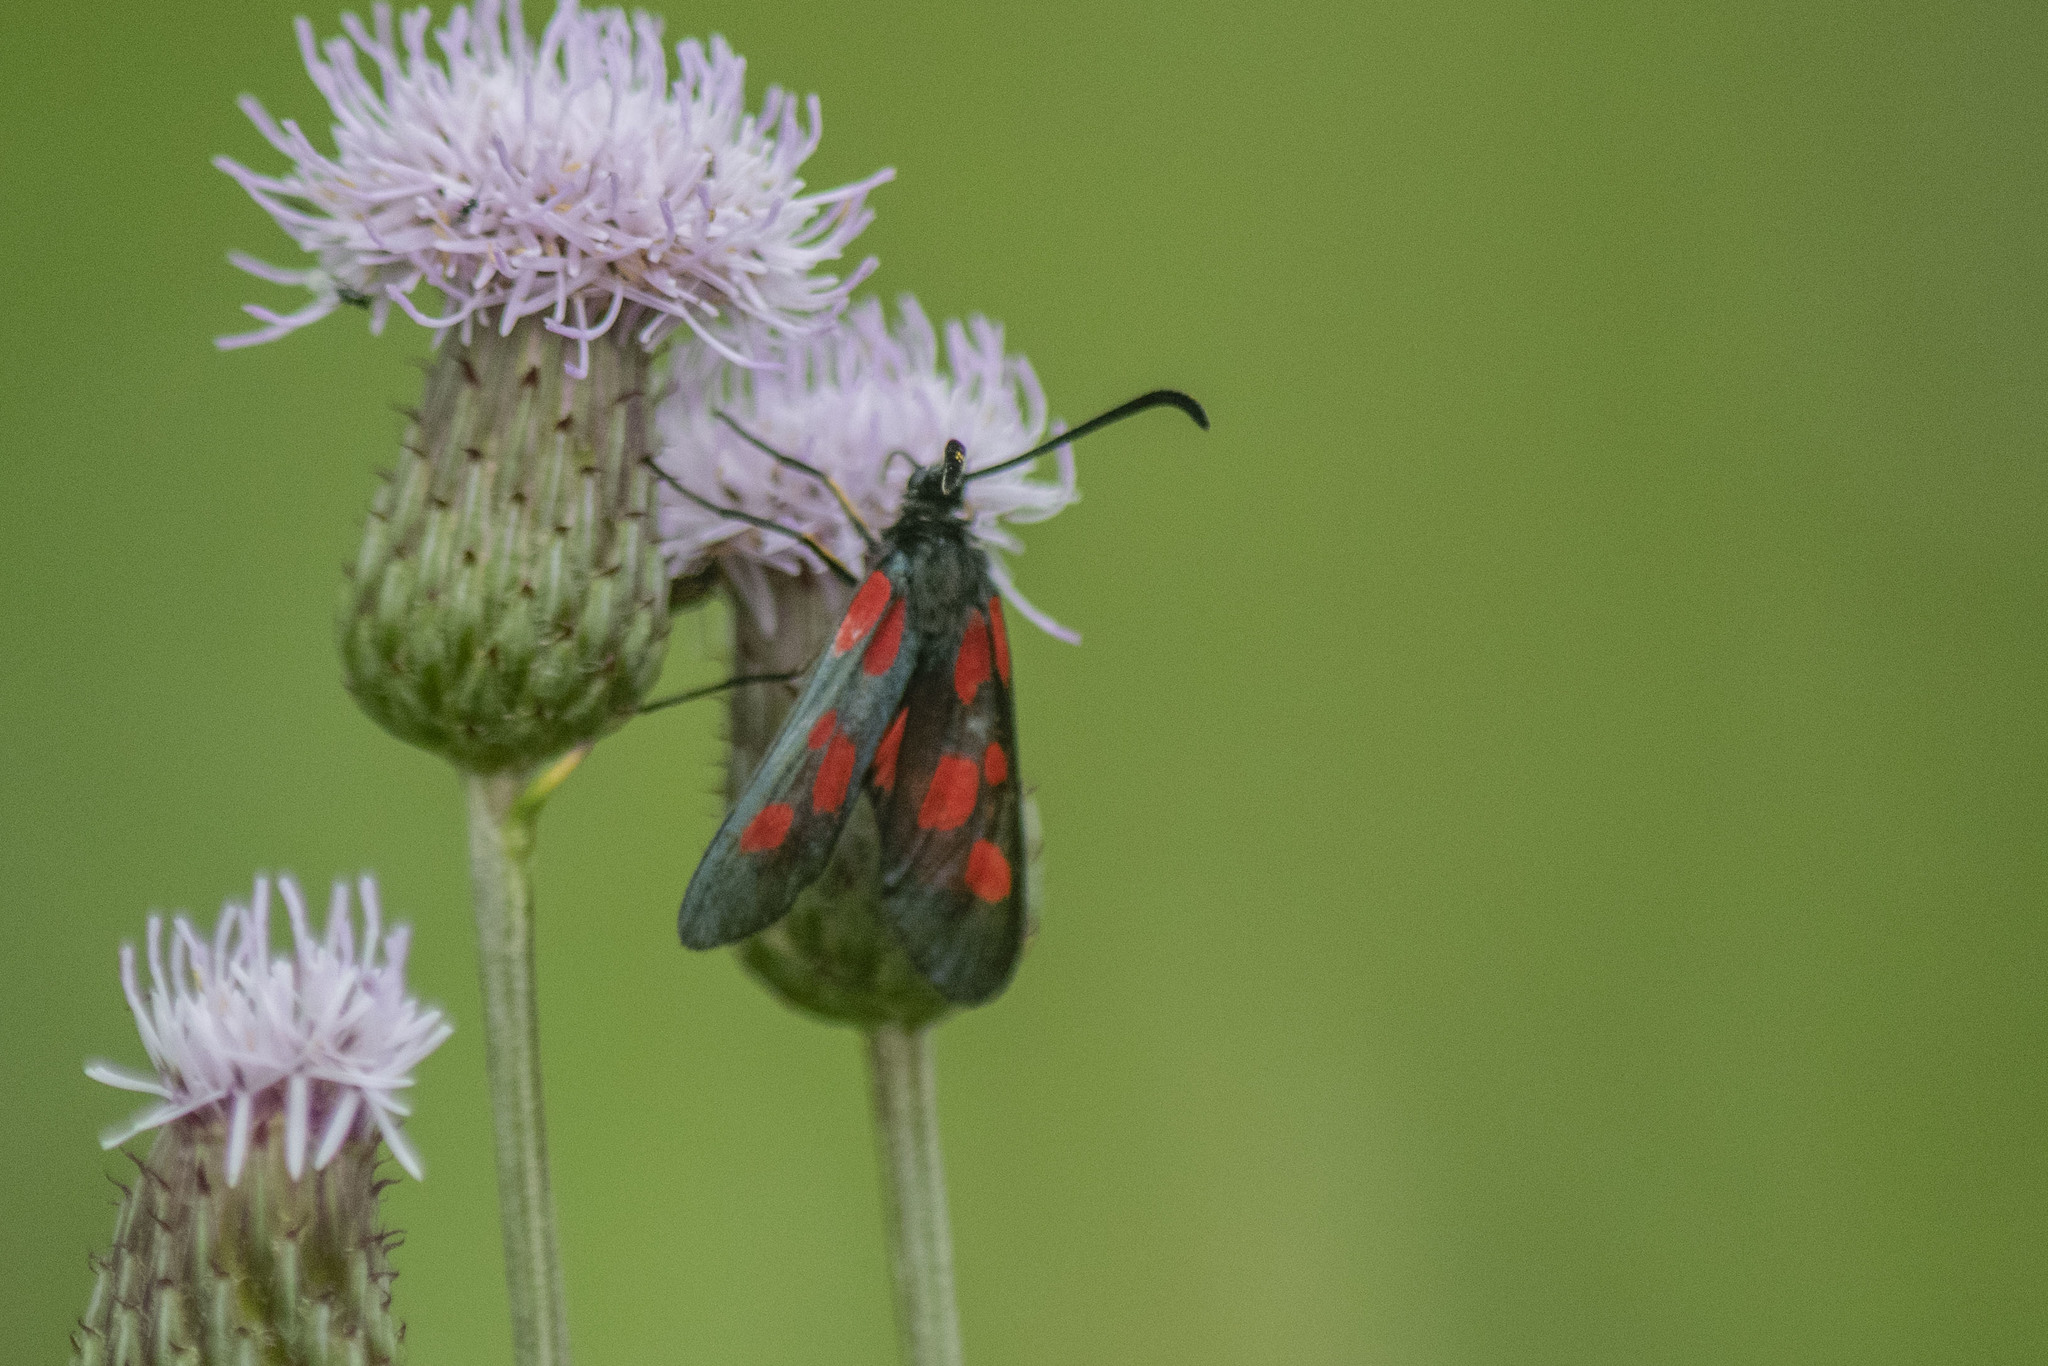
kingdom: Animalia
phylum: Arthropoda
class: Insecta
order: Lepidoptera
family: Zygaenidae
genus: Zygaena
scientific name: Zygaena viciae
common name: New forest burnet
